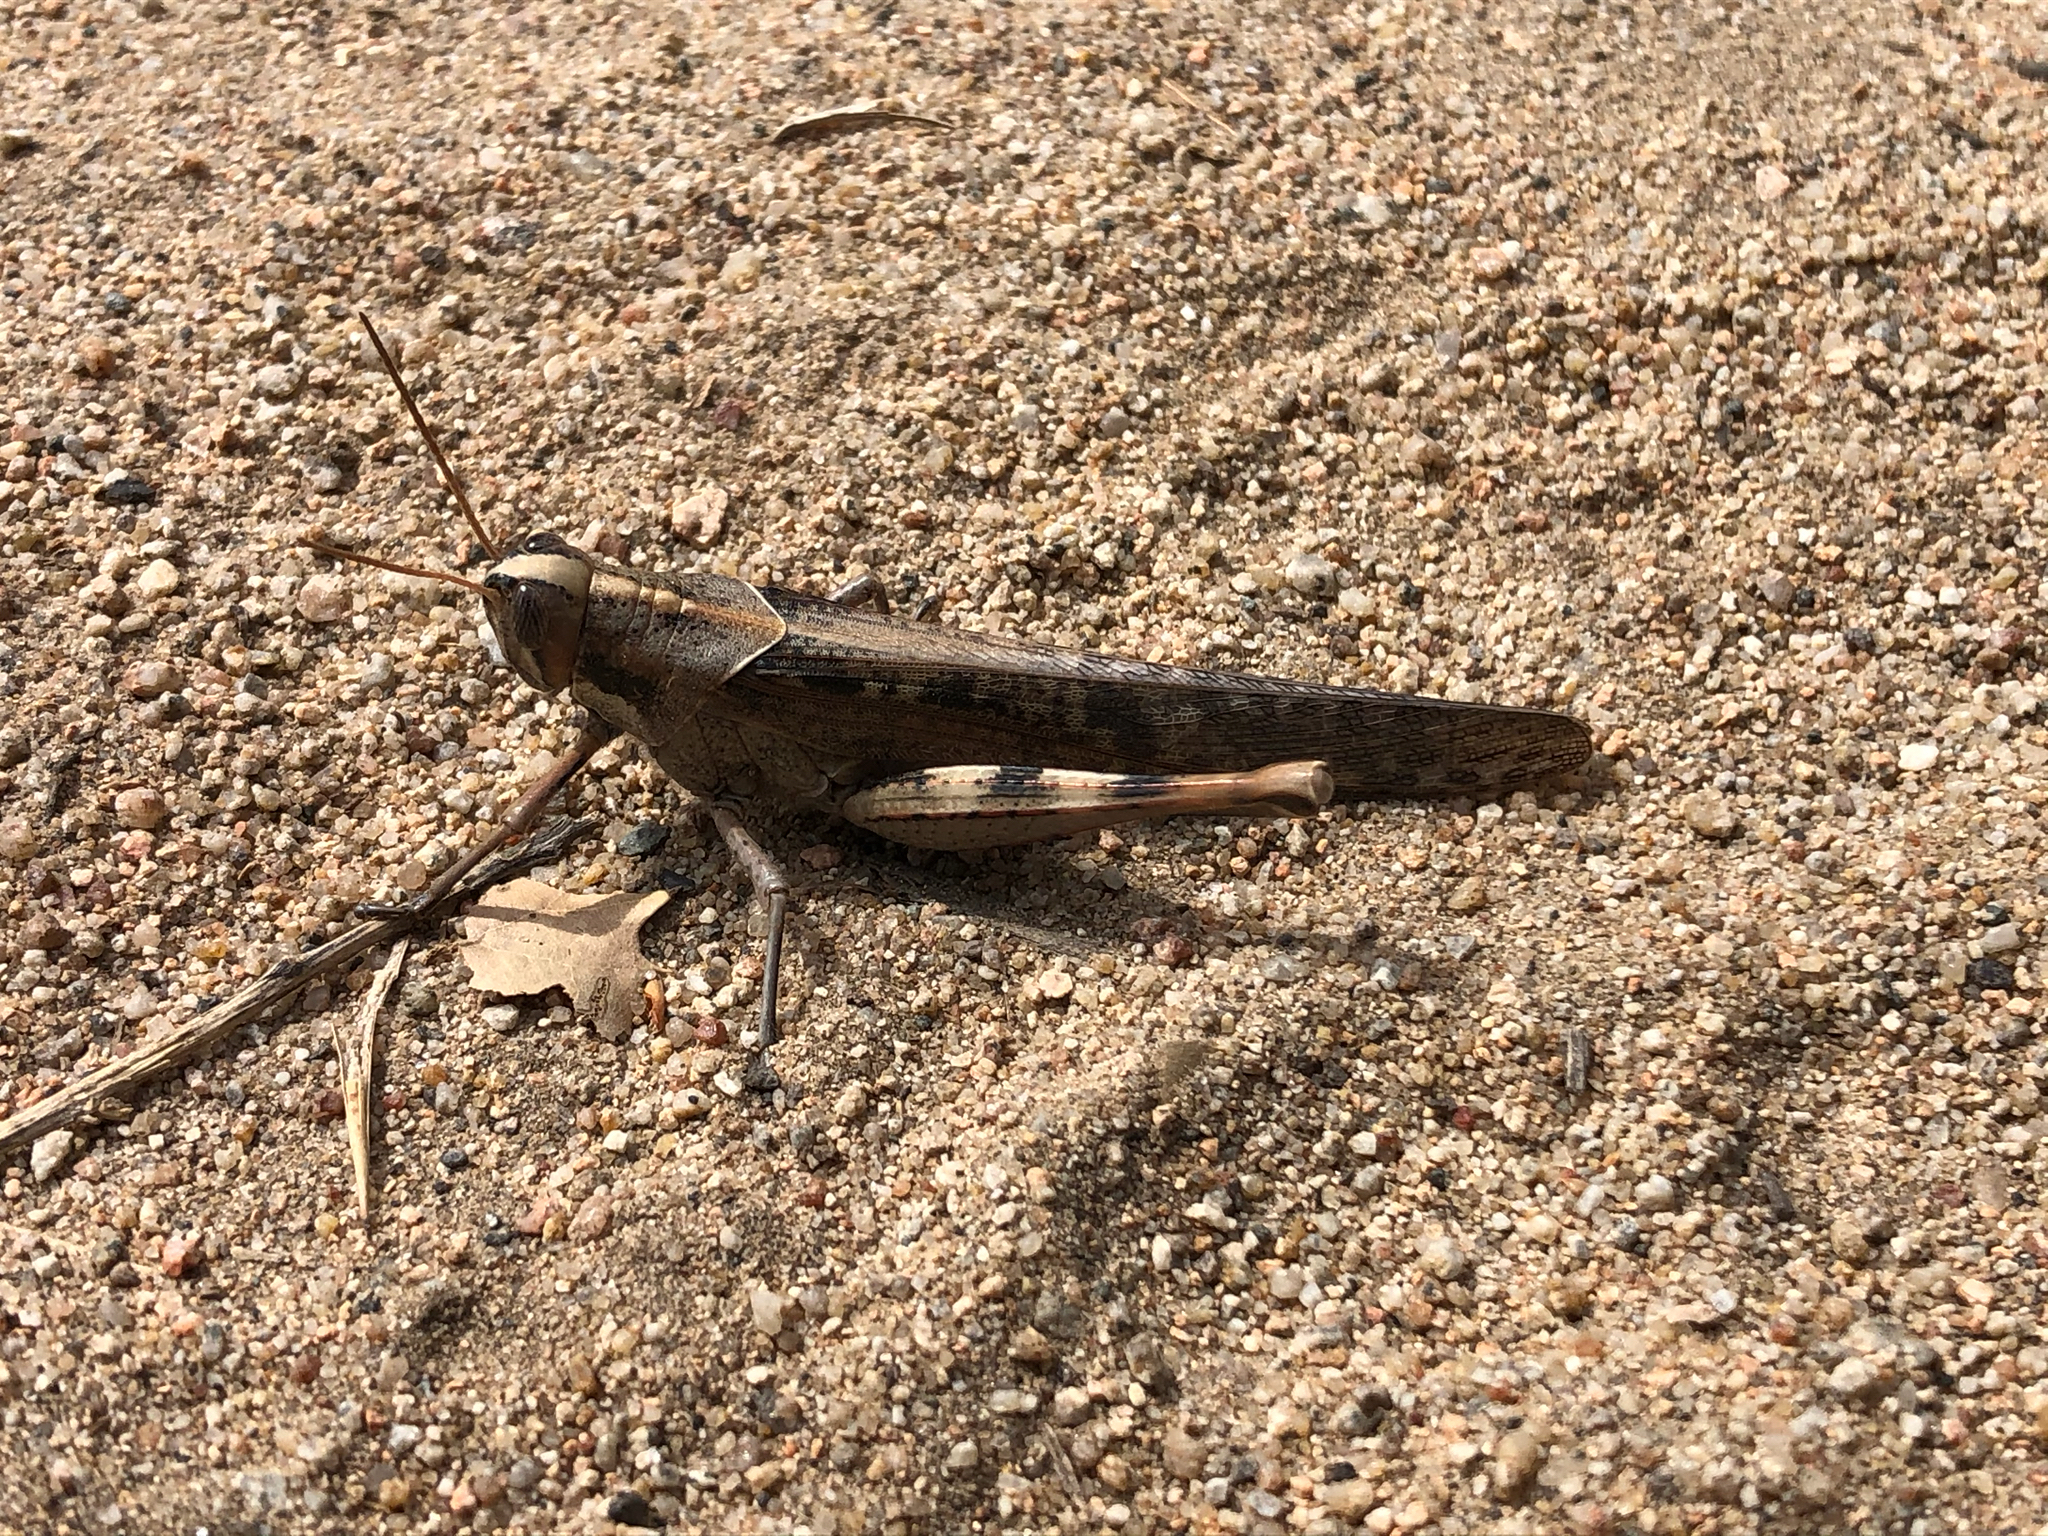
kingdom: Animalia
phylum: Arthropoda
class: Insecta
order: Orthoptera
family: Acrididae
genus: Schistocerca
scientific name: Schistocerca nitens
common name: Vagrant grasshopper
